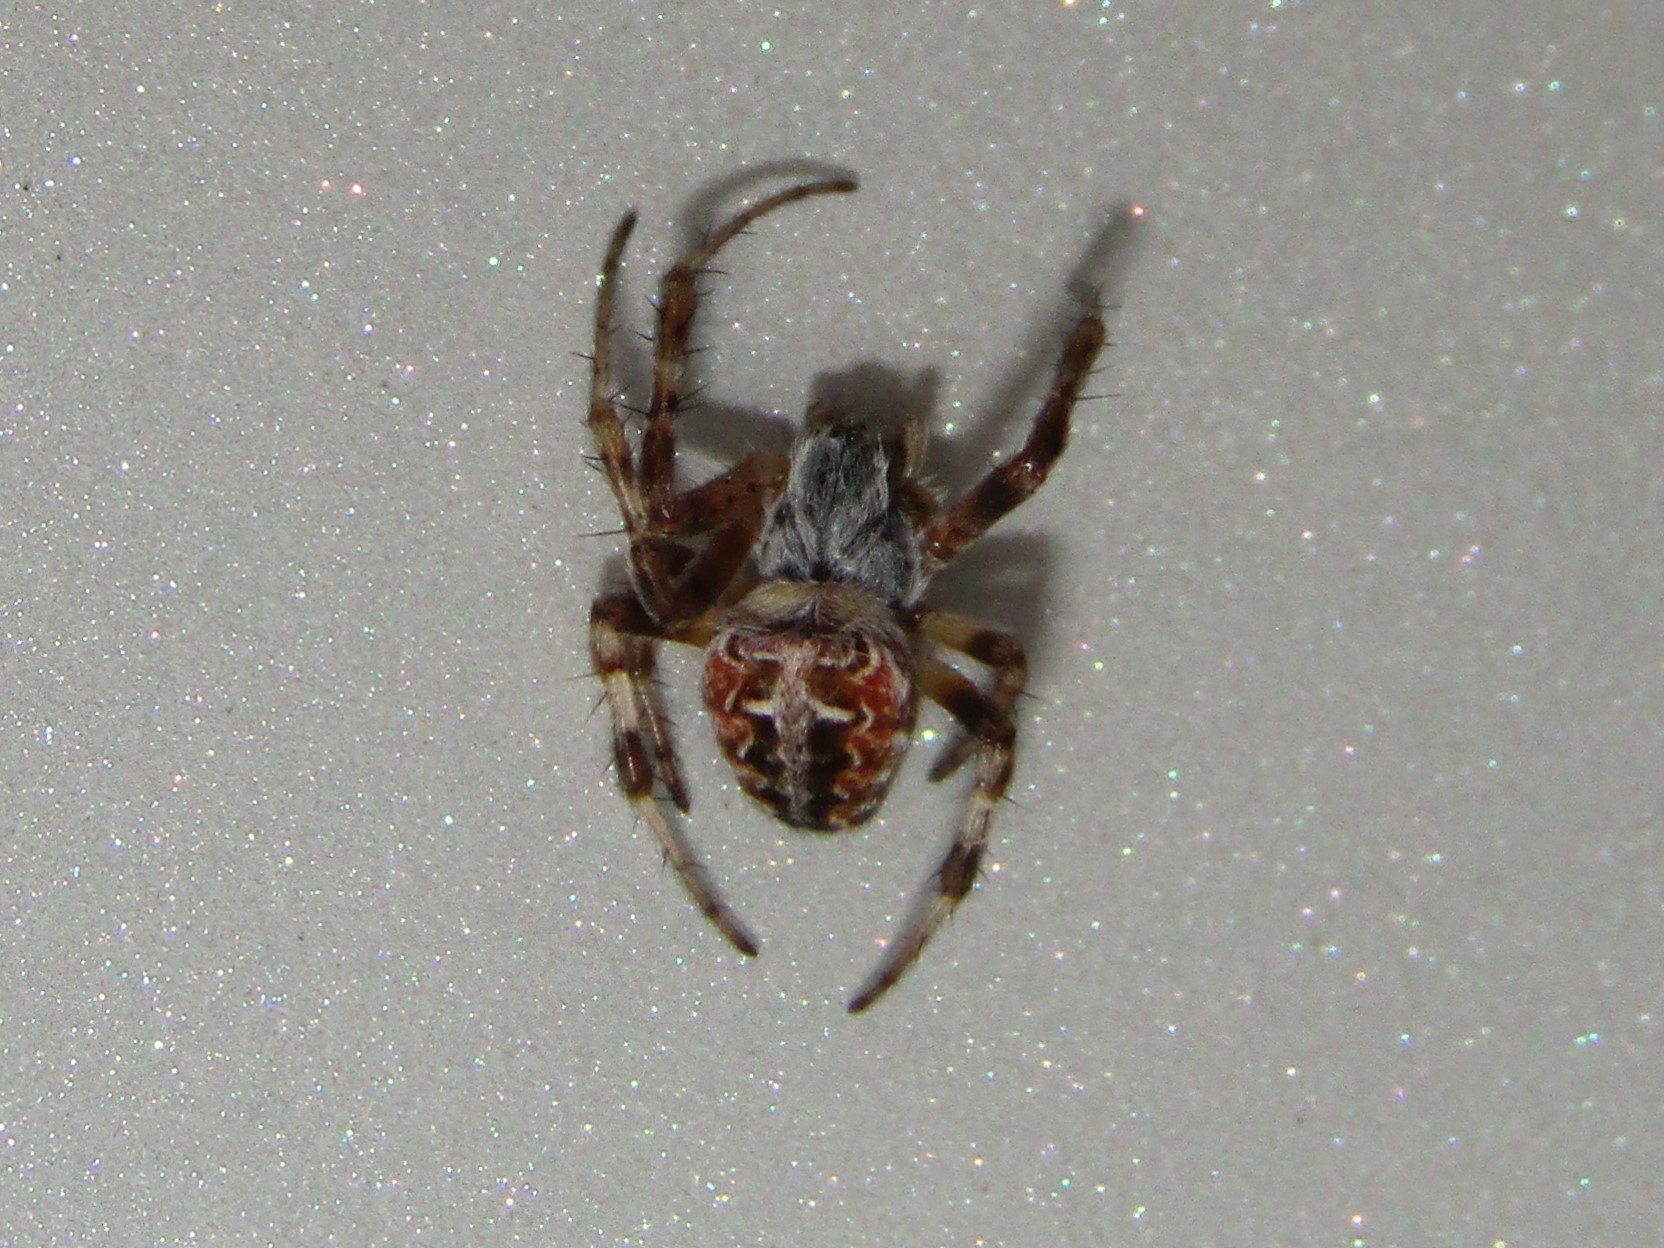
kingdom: Animalia
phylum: Arthropoda
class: Arachnida
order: Araneae
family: Araneidae
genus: Metepeira
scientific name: Metepeira labyrinthea
